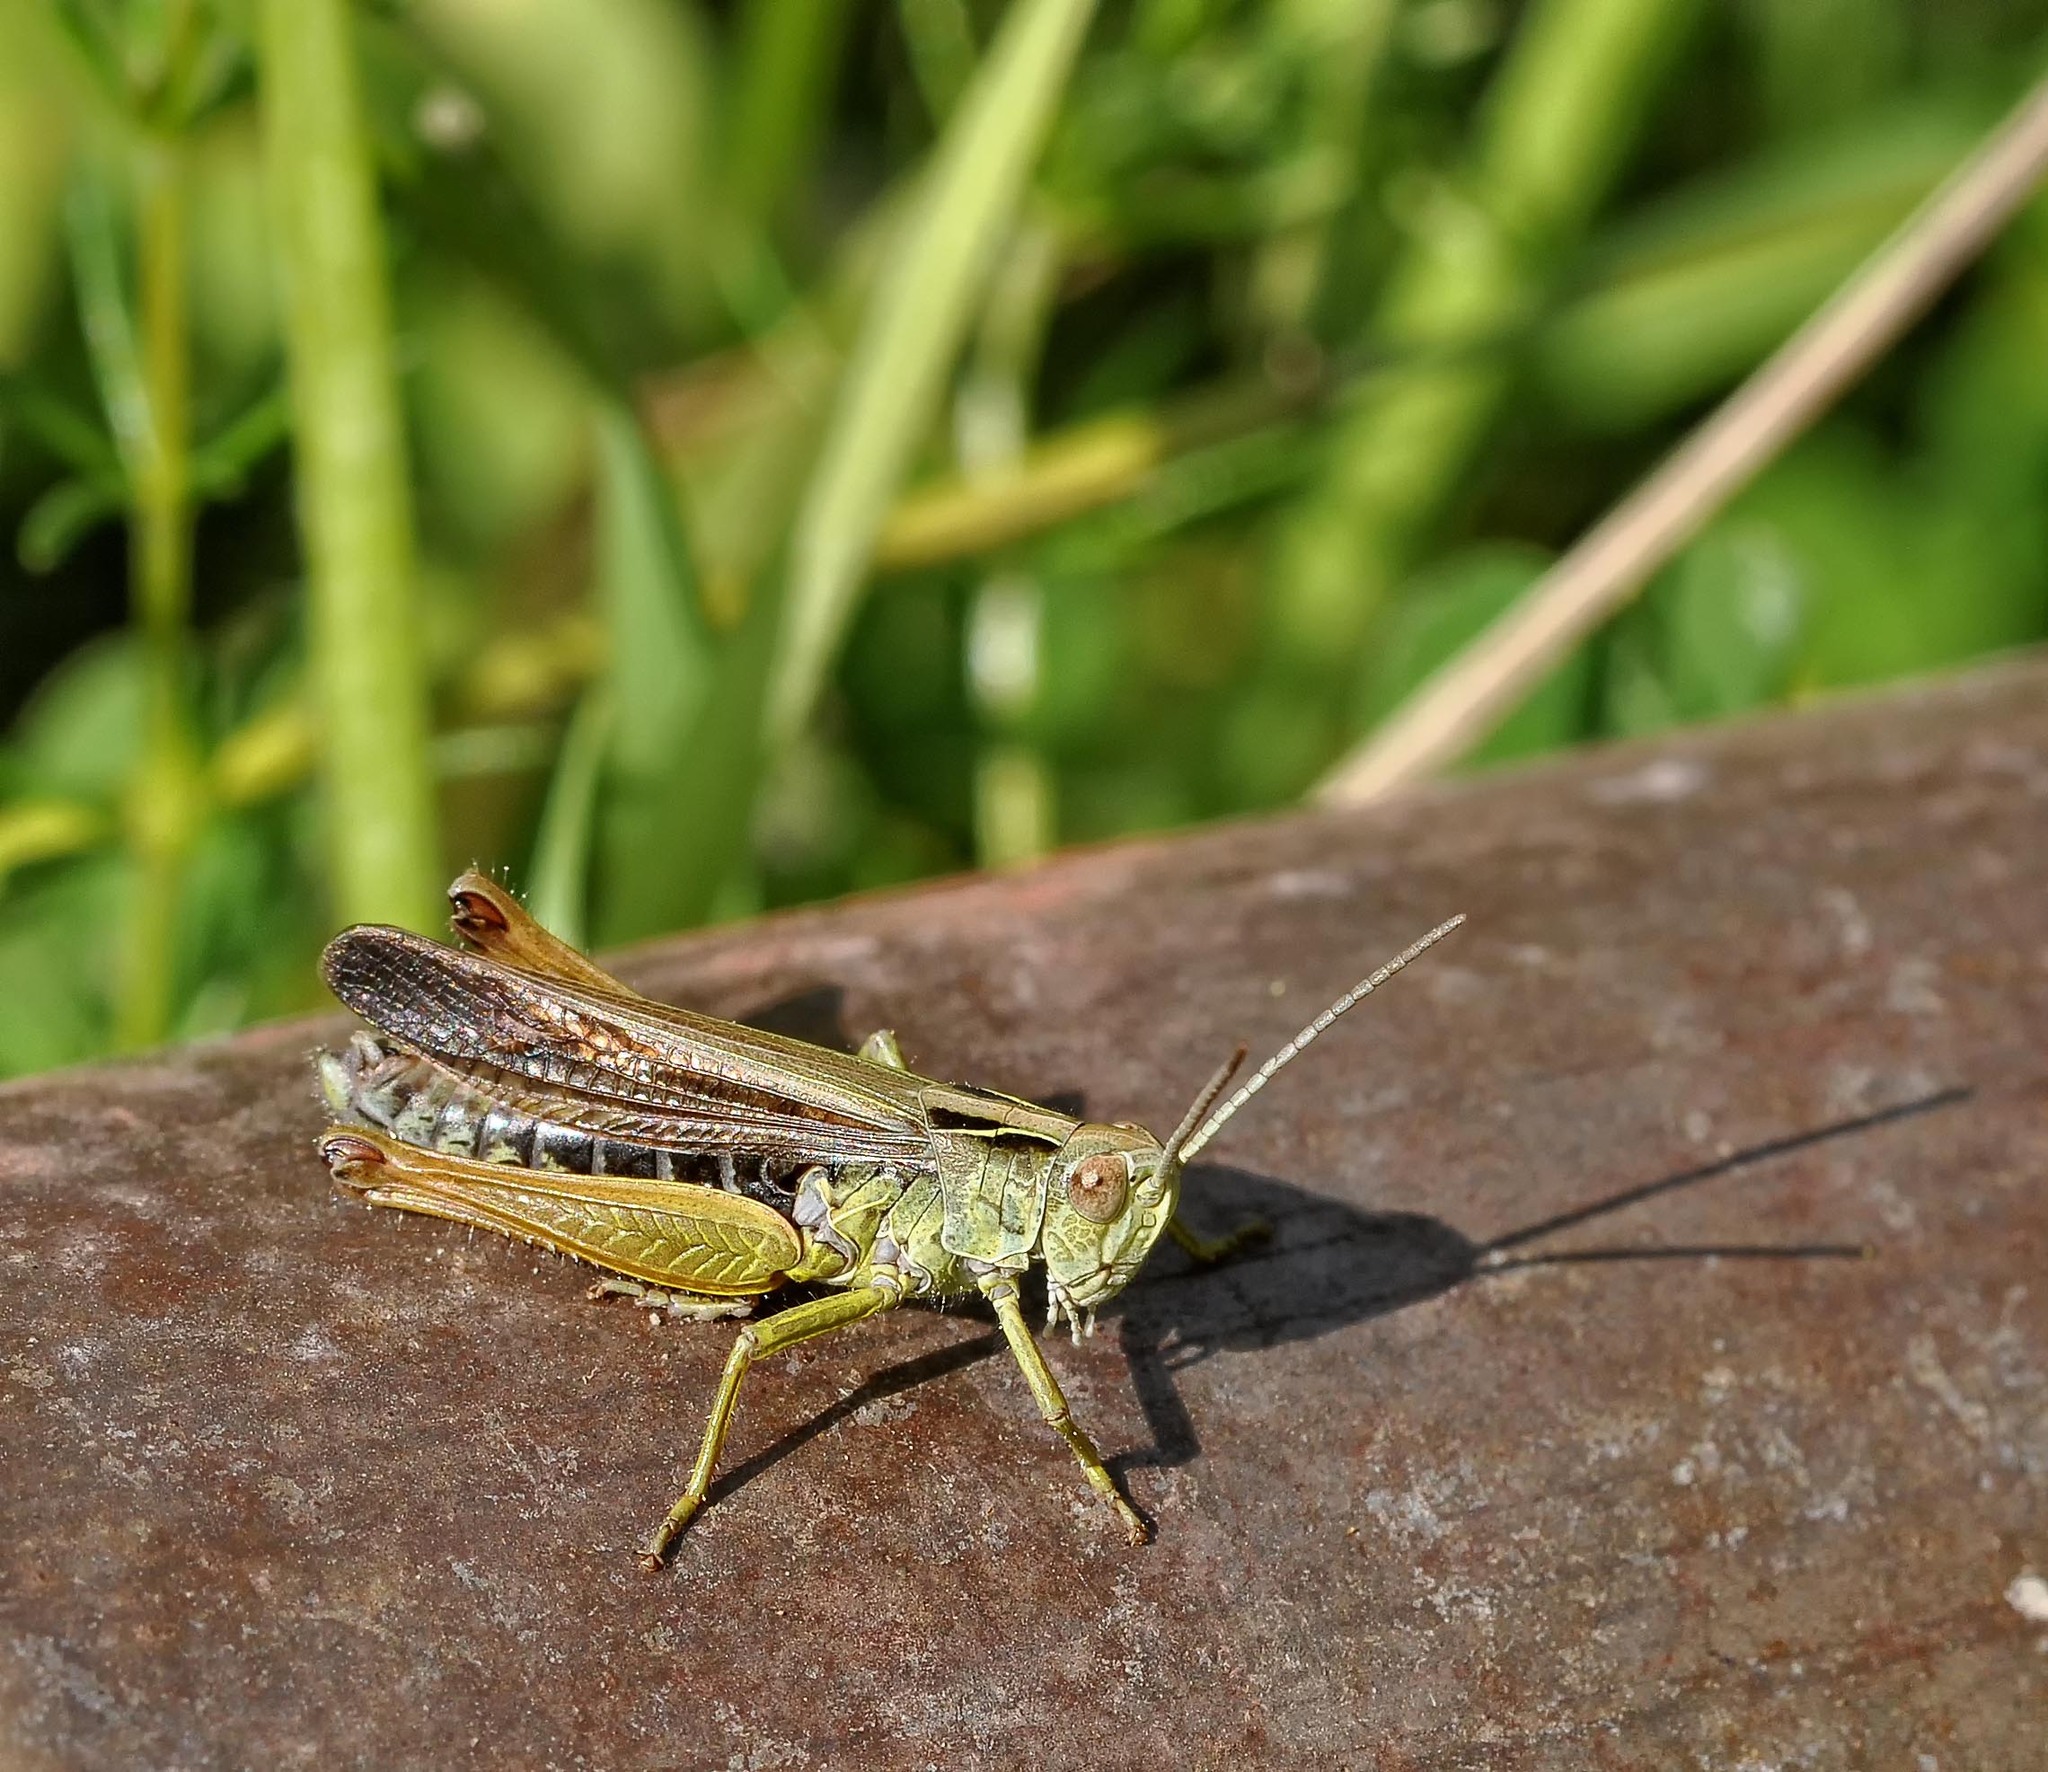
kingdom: Animalia
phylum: Arthropoda
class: Insecta
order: Orthoptera
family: Acrididae
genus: Omocestus
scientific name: Omocestus viridulus
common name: Common green grasshopper
